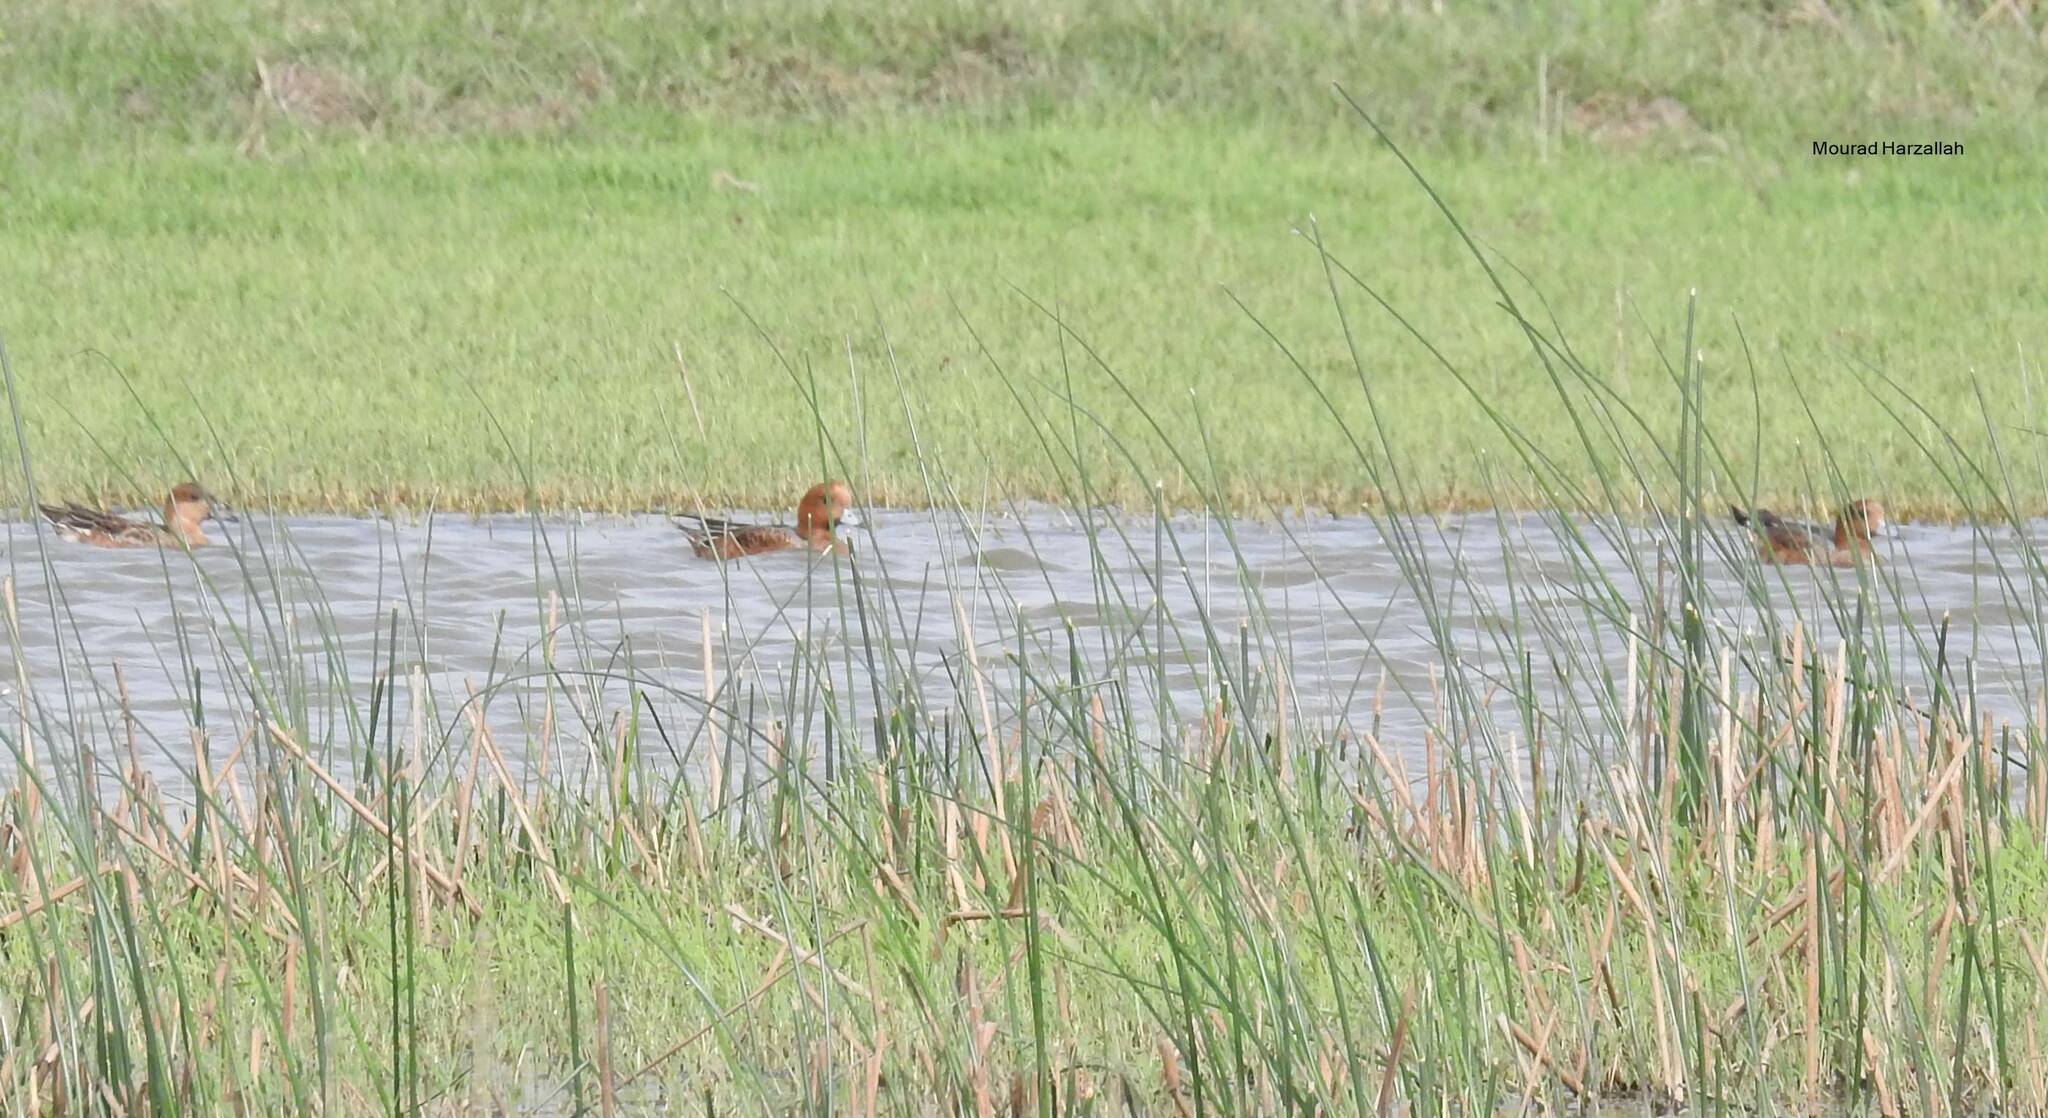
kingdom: Animalia
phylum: Chordata
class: Aves
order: Anseriformes
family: Anatidae
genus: Mareca
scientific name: Mareca penelope
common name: Eurasian wigeon
